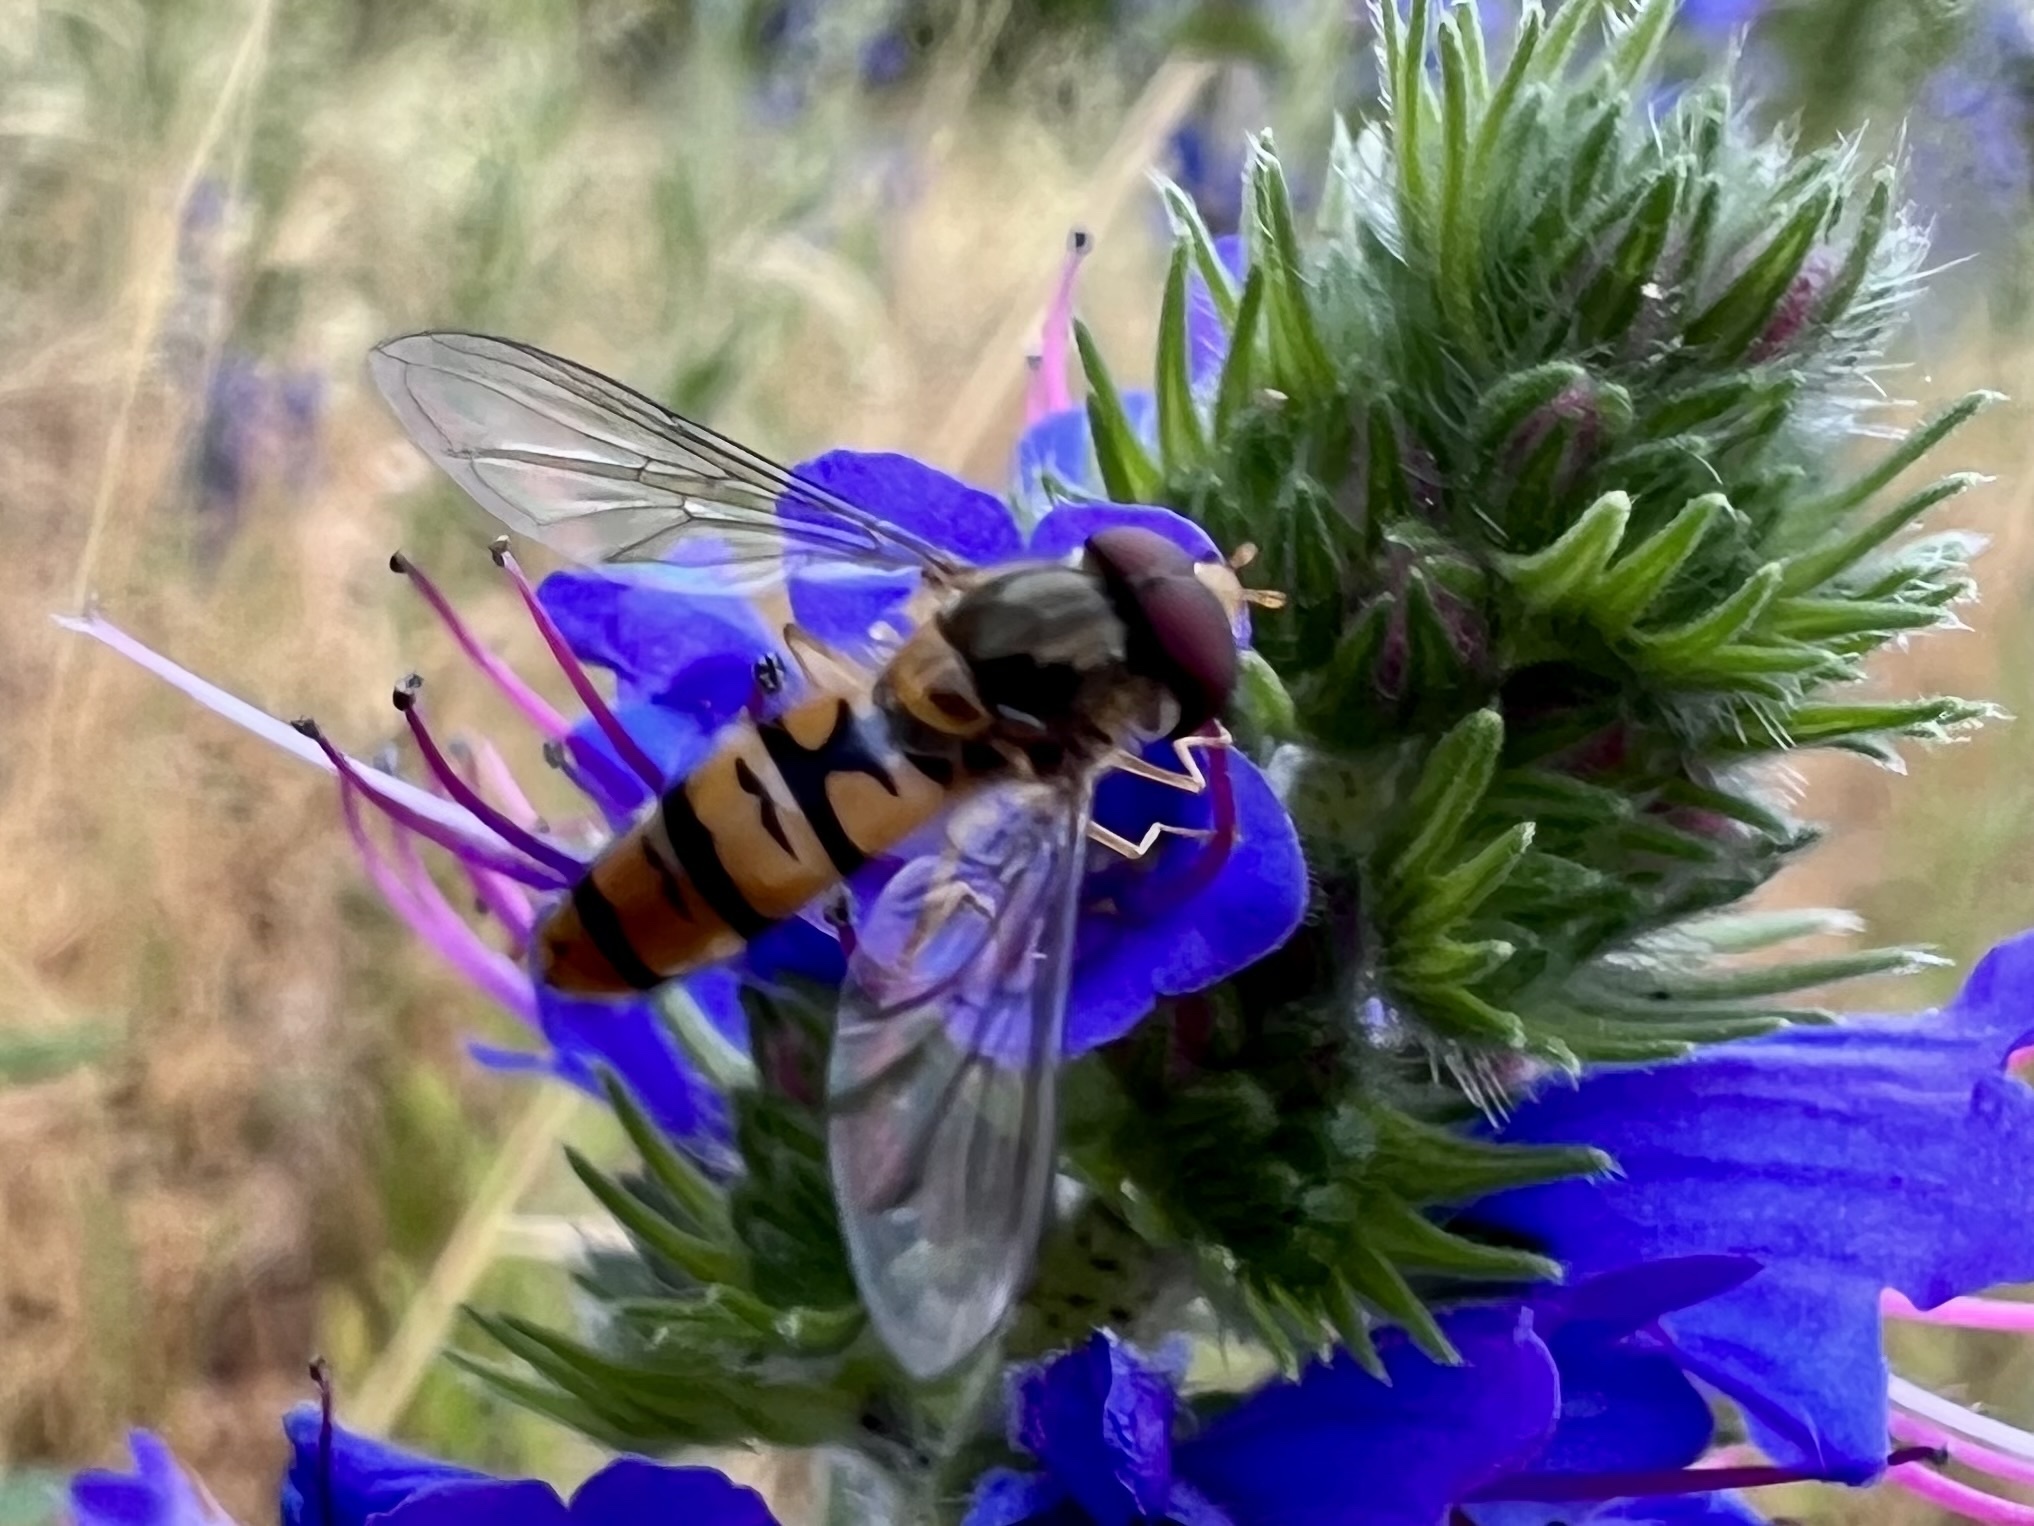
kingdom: Animalia
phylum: Arthropoda
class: Insecta
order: Diptera
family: Syrphidae
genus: Episyrphus
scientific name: Episyrphus balteatus
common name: Marmalade hoverfly
